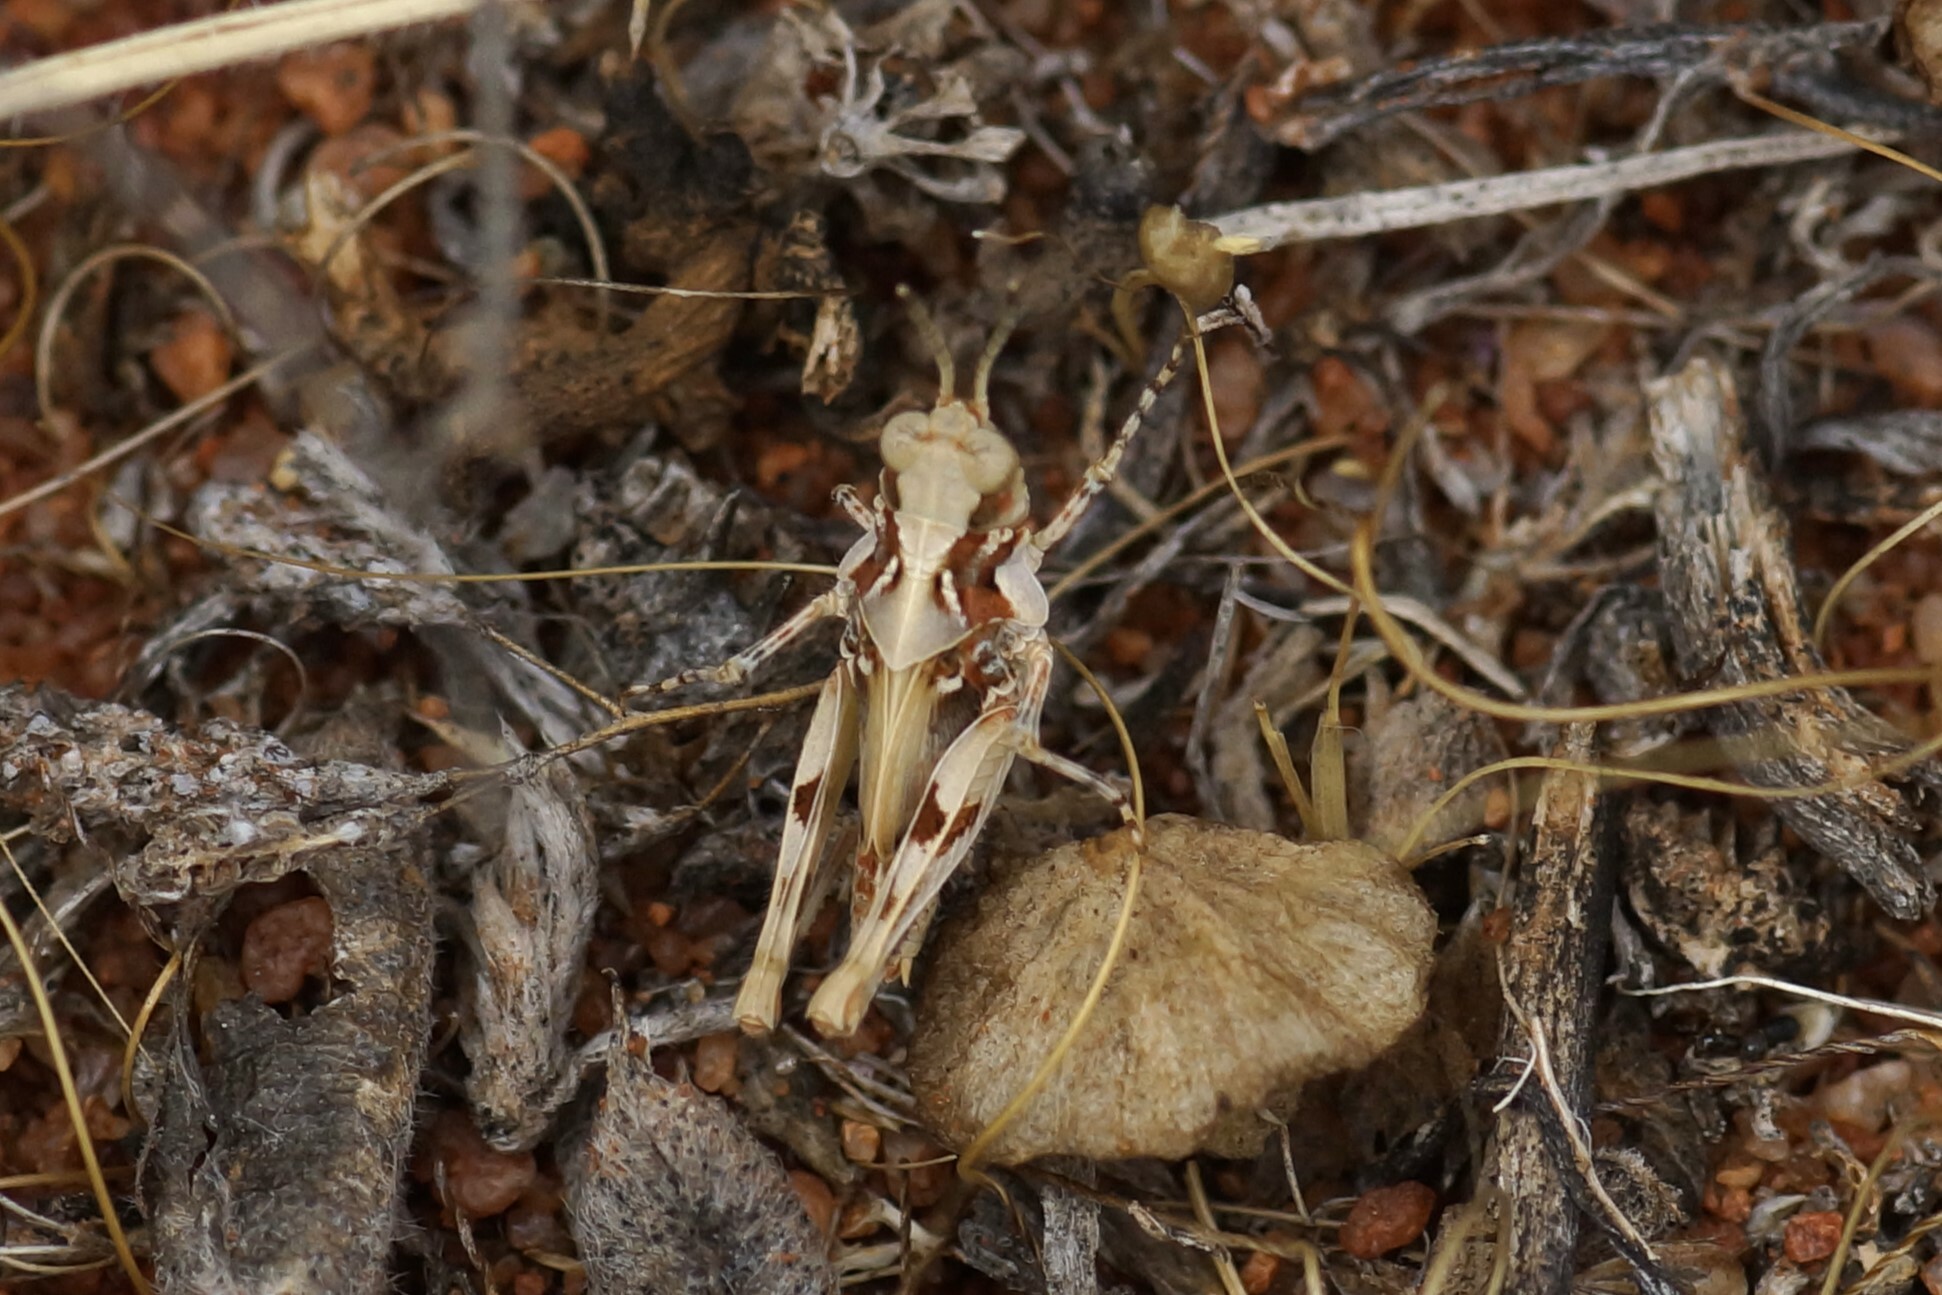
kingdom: Animalia
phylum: Arthropoda
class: Insecta
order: Orthoptera
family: Acrididae
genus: Pycnostictus
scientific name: Pycnostictus seriatus
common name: Common bandwing
